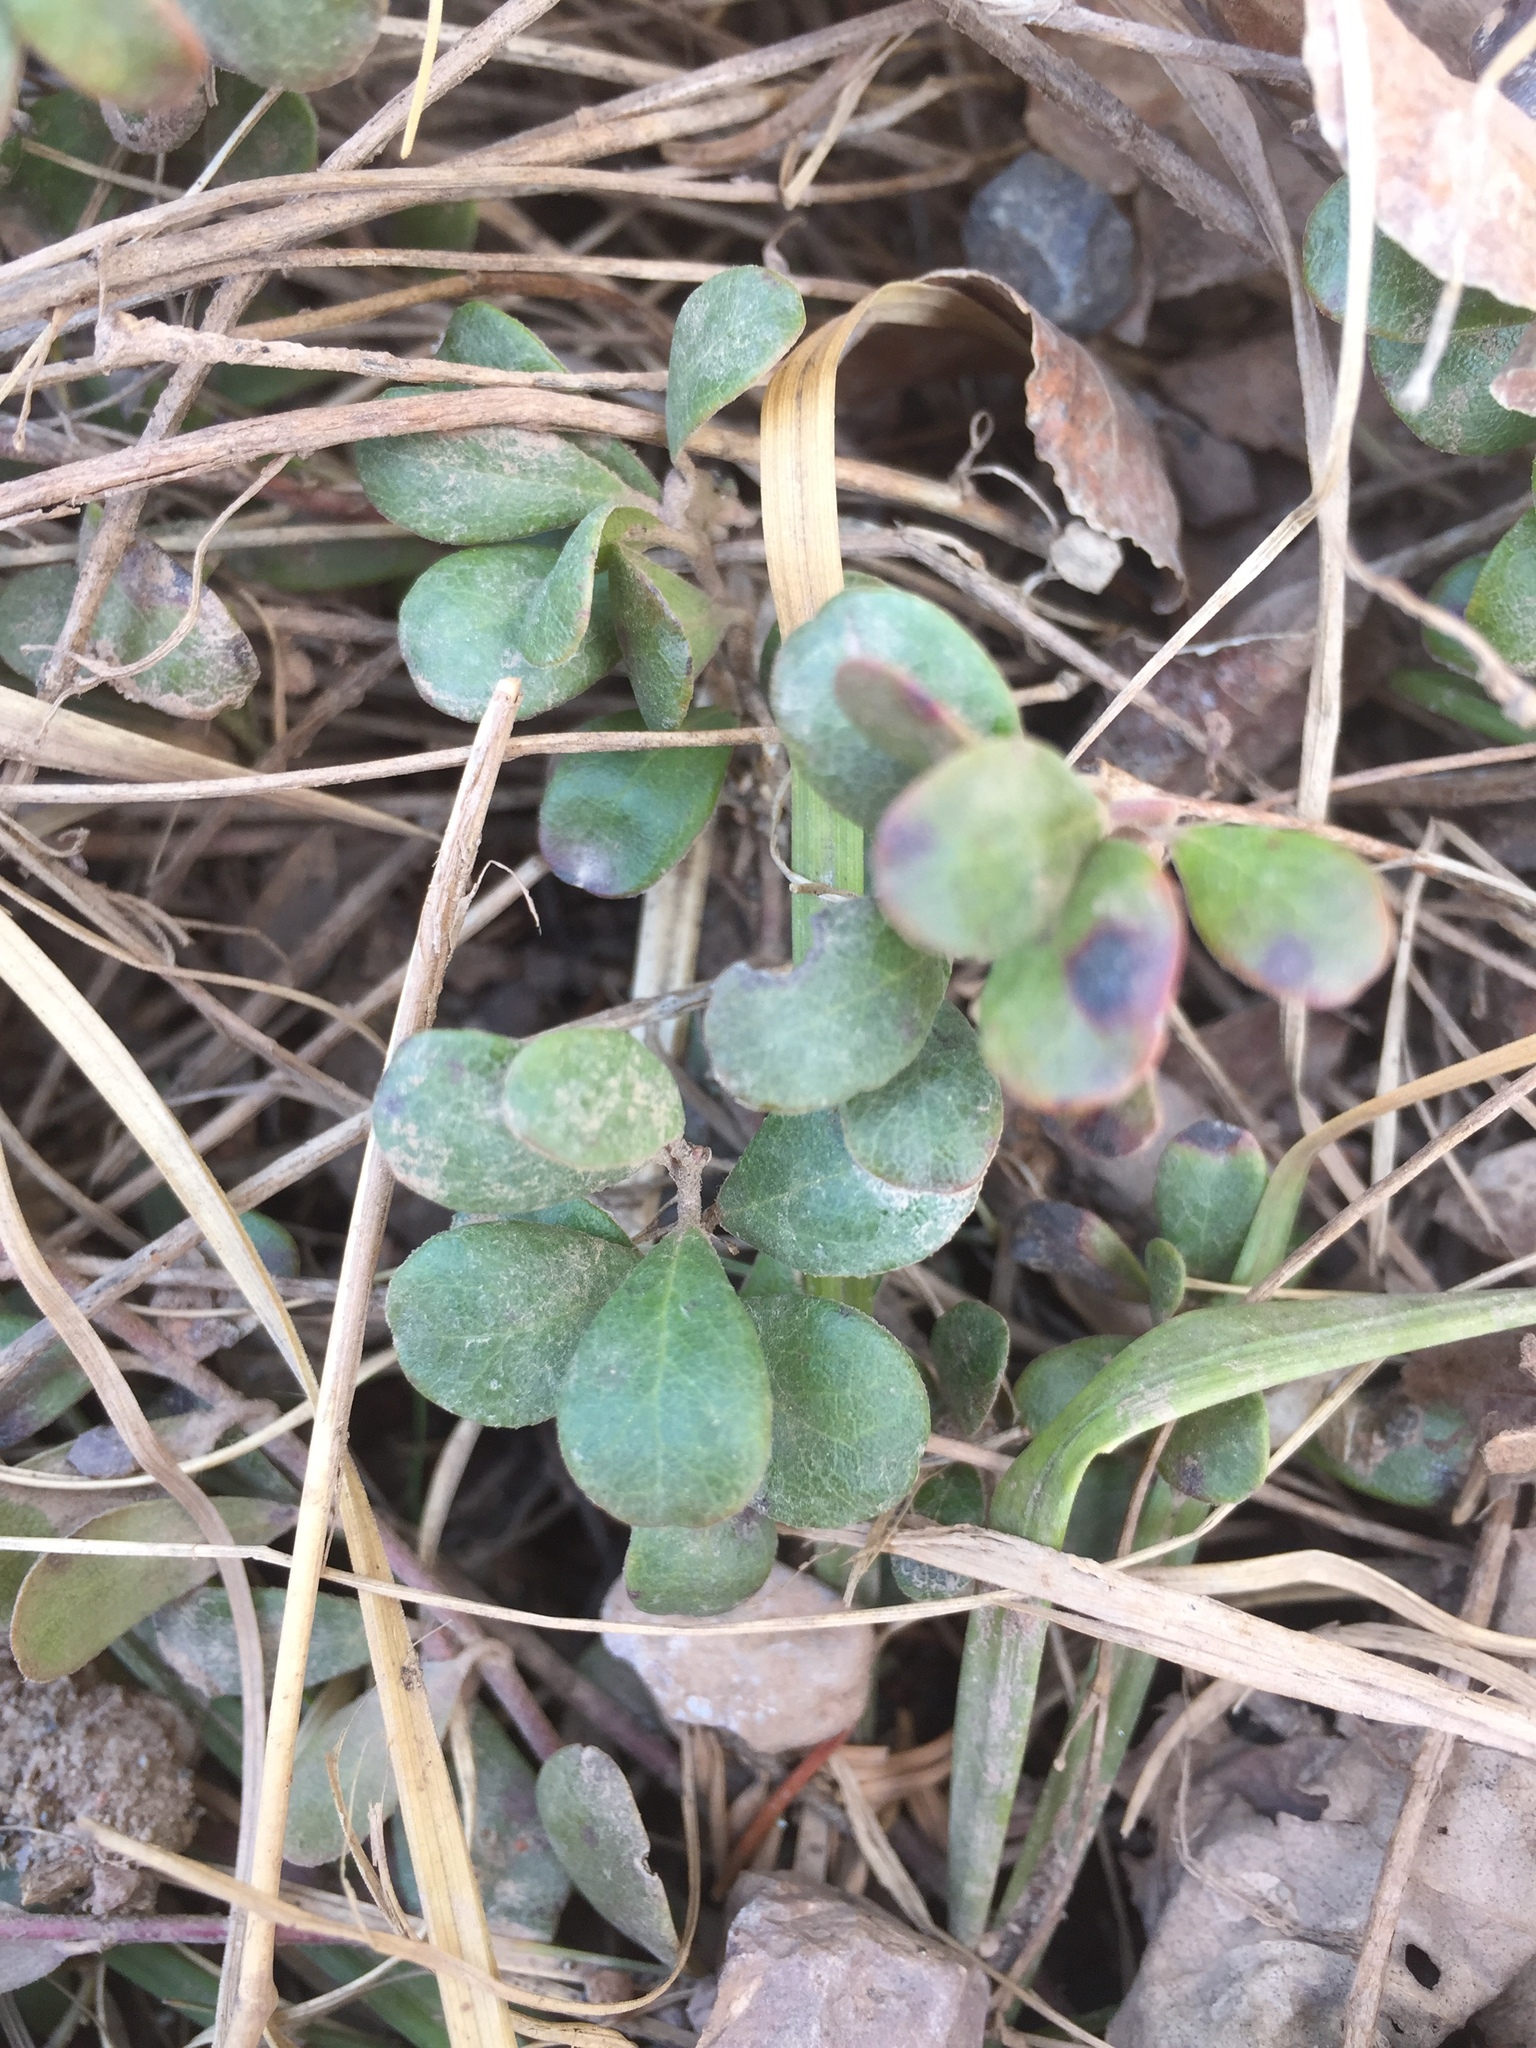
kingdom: Plantae
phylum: Tracheophyta
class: Magnoliopsida
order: Ericales
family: Ericaceae
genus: Arctostaphylos
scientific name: Arctostaphylos uva-ursi
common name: Bearberry
